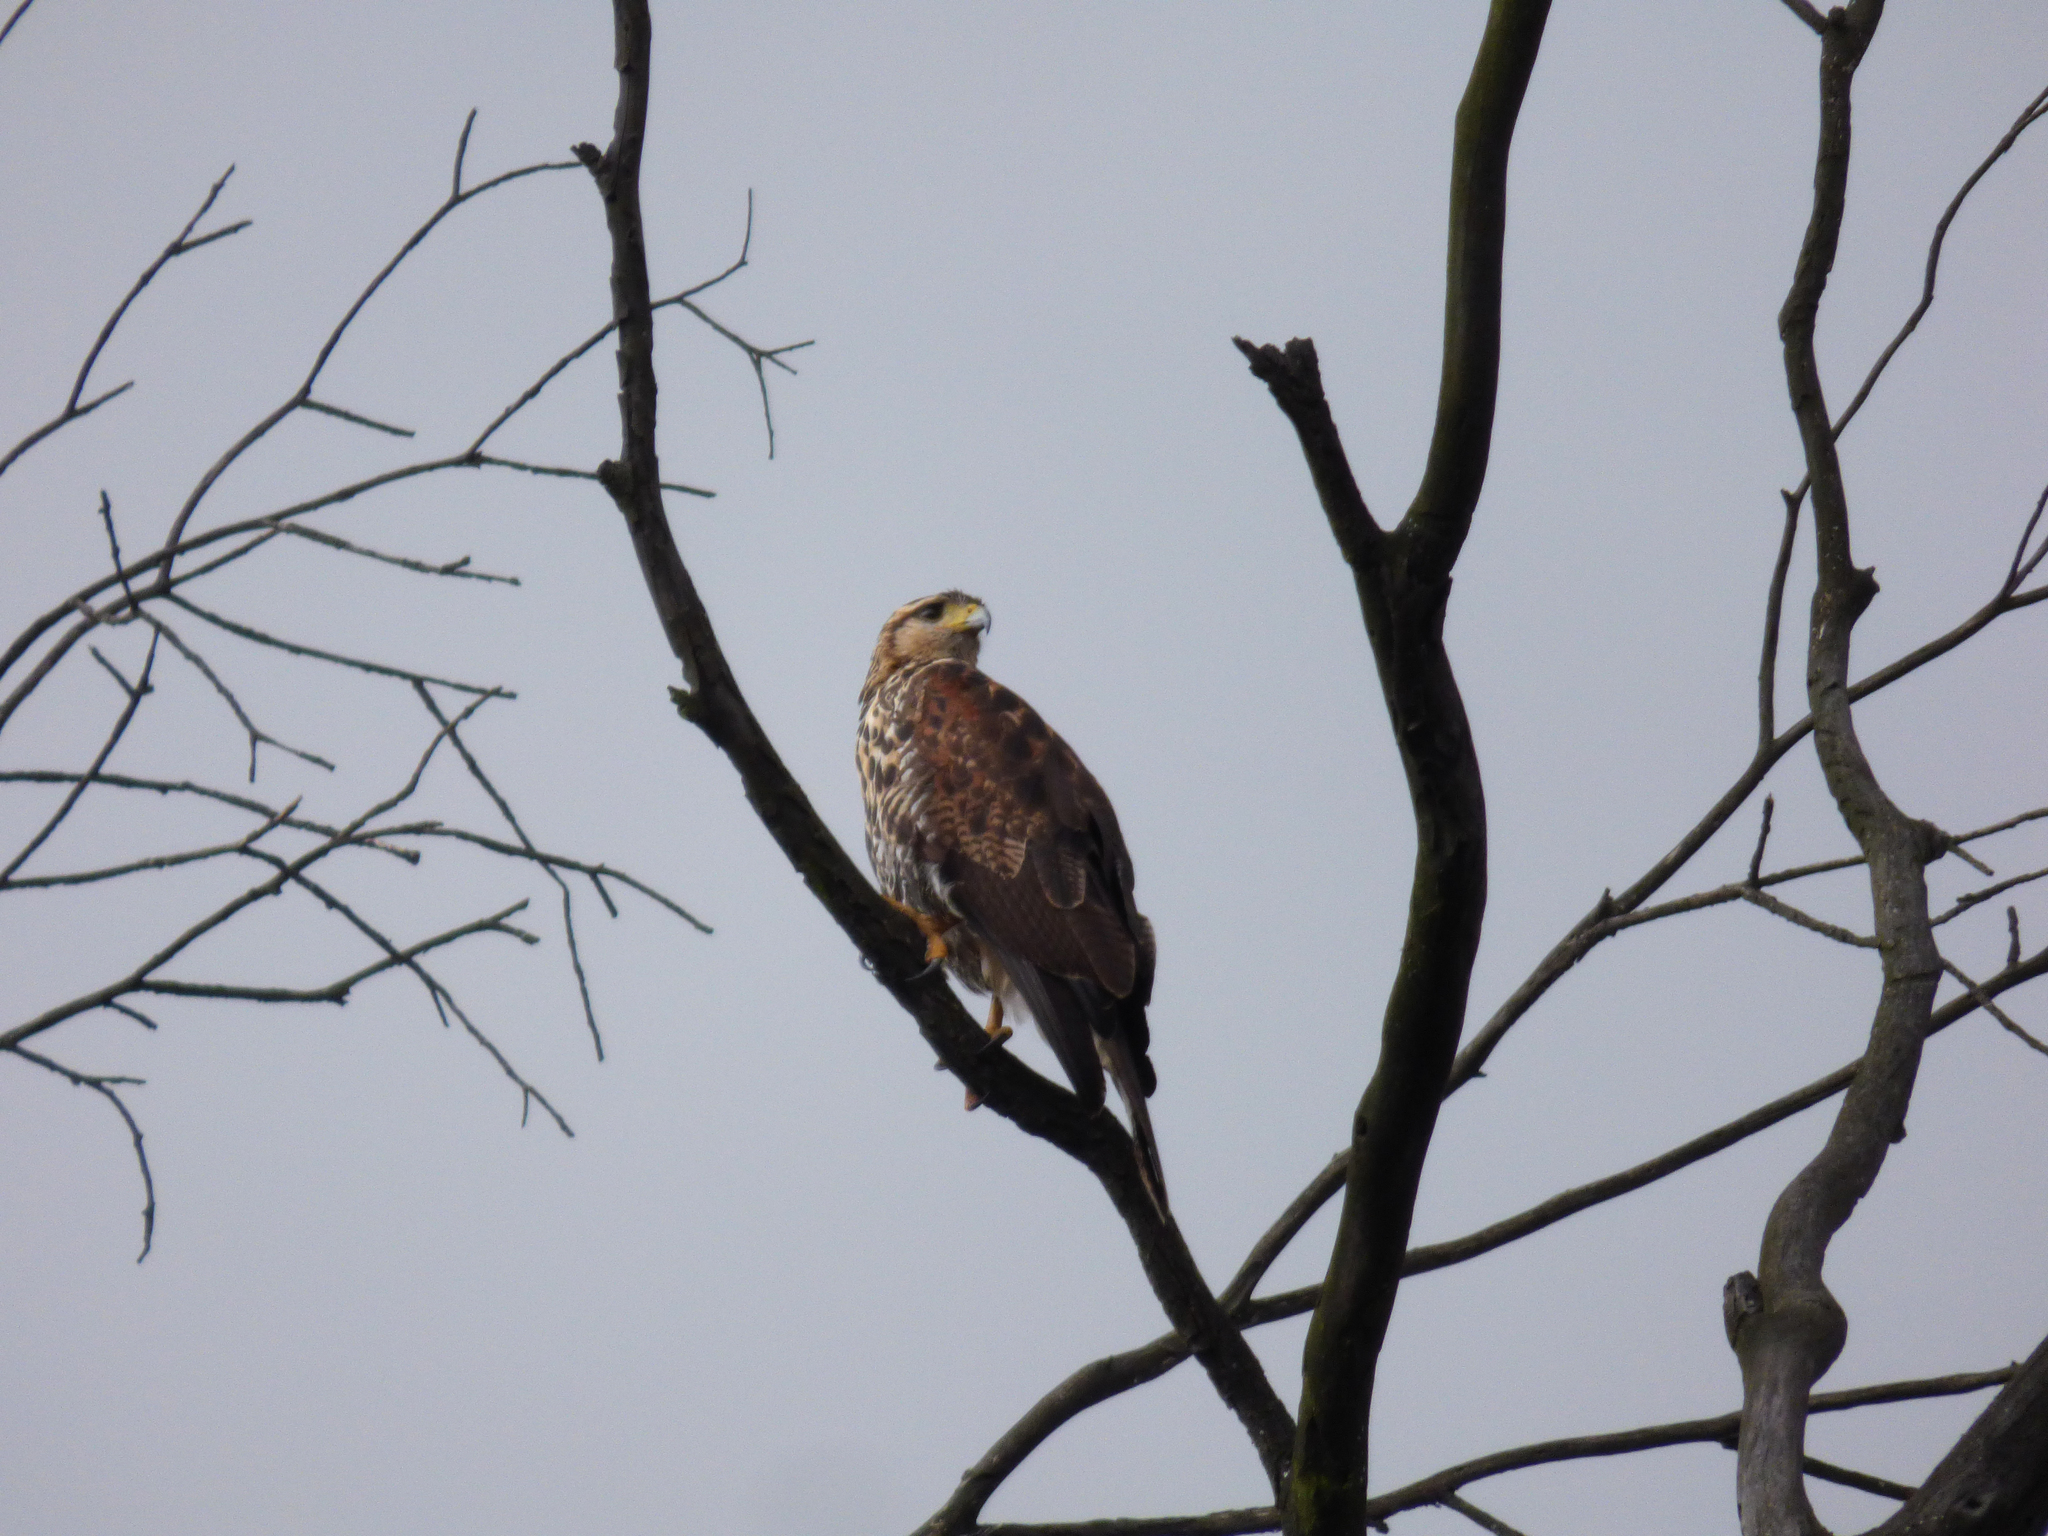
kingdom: Animalia
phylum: Chordata
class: Aves
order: Accipitriformes
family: Accipitridae
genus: Parabuteo
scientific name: Parabuteo unicinctus
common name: Harris's hawk
